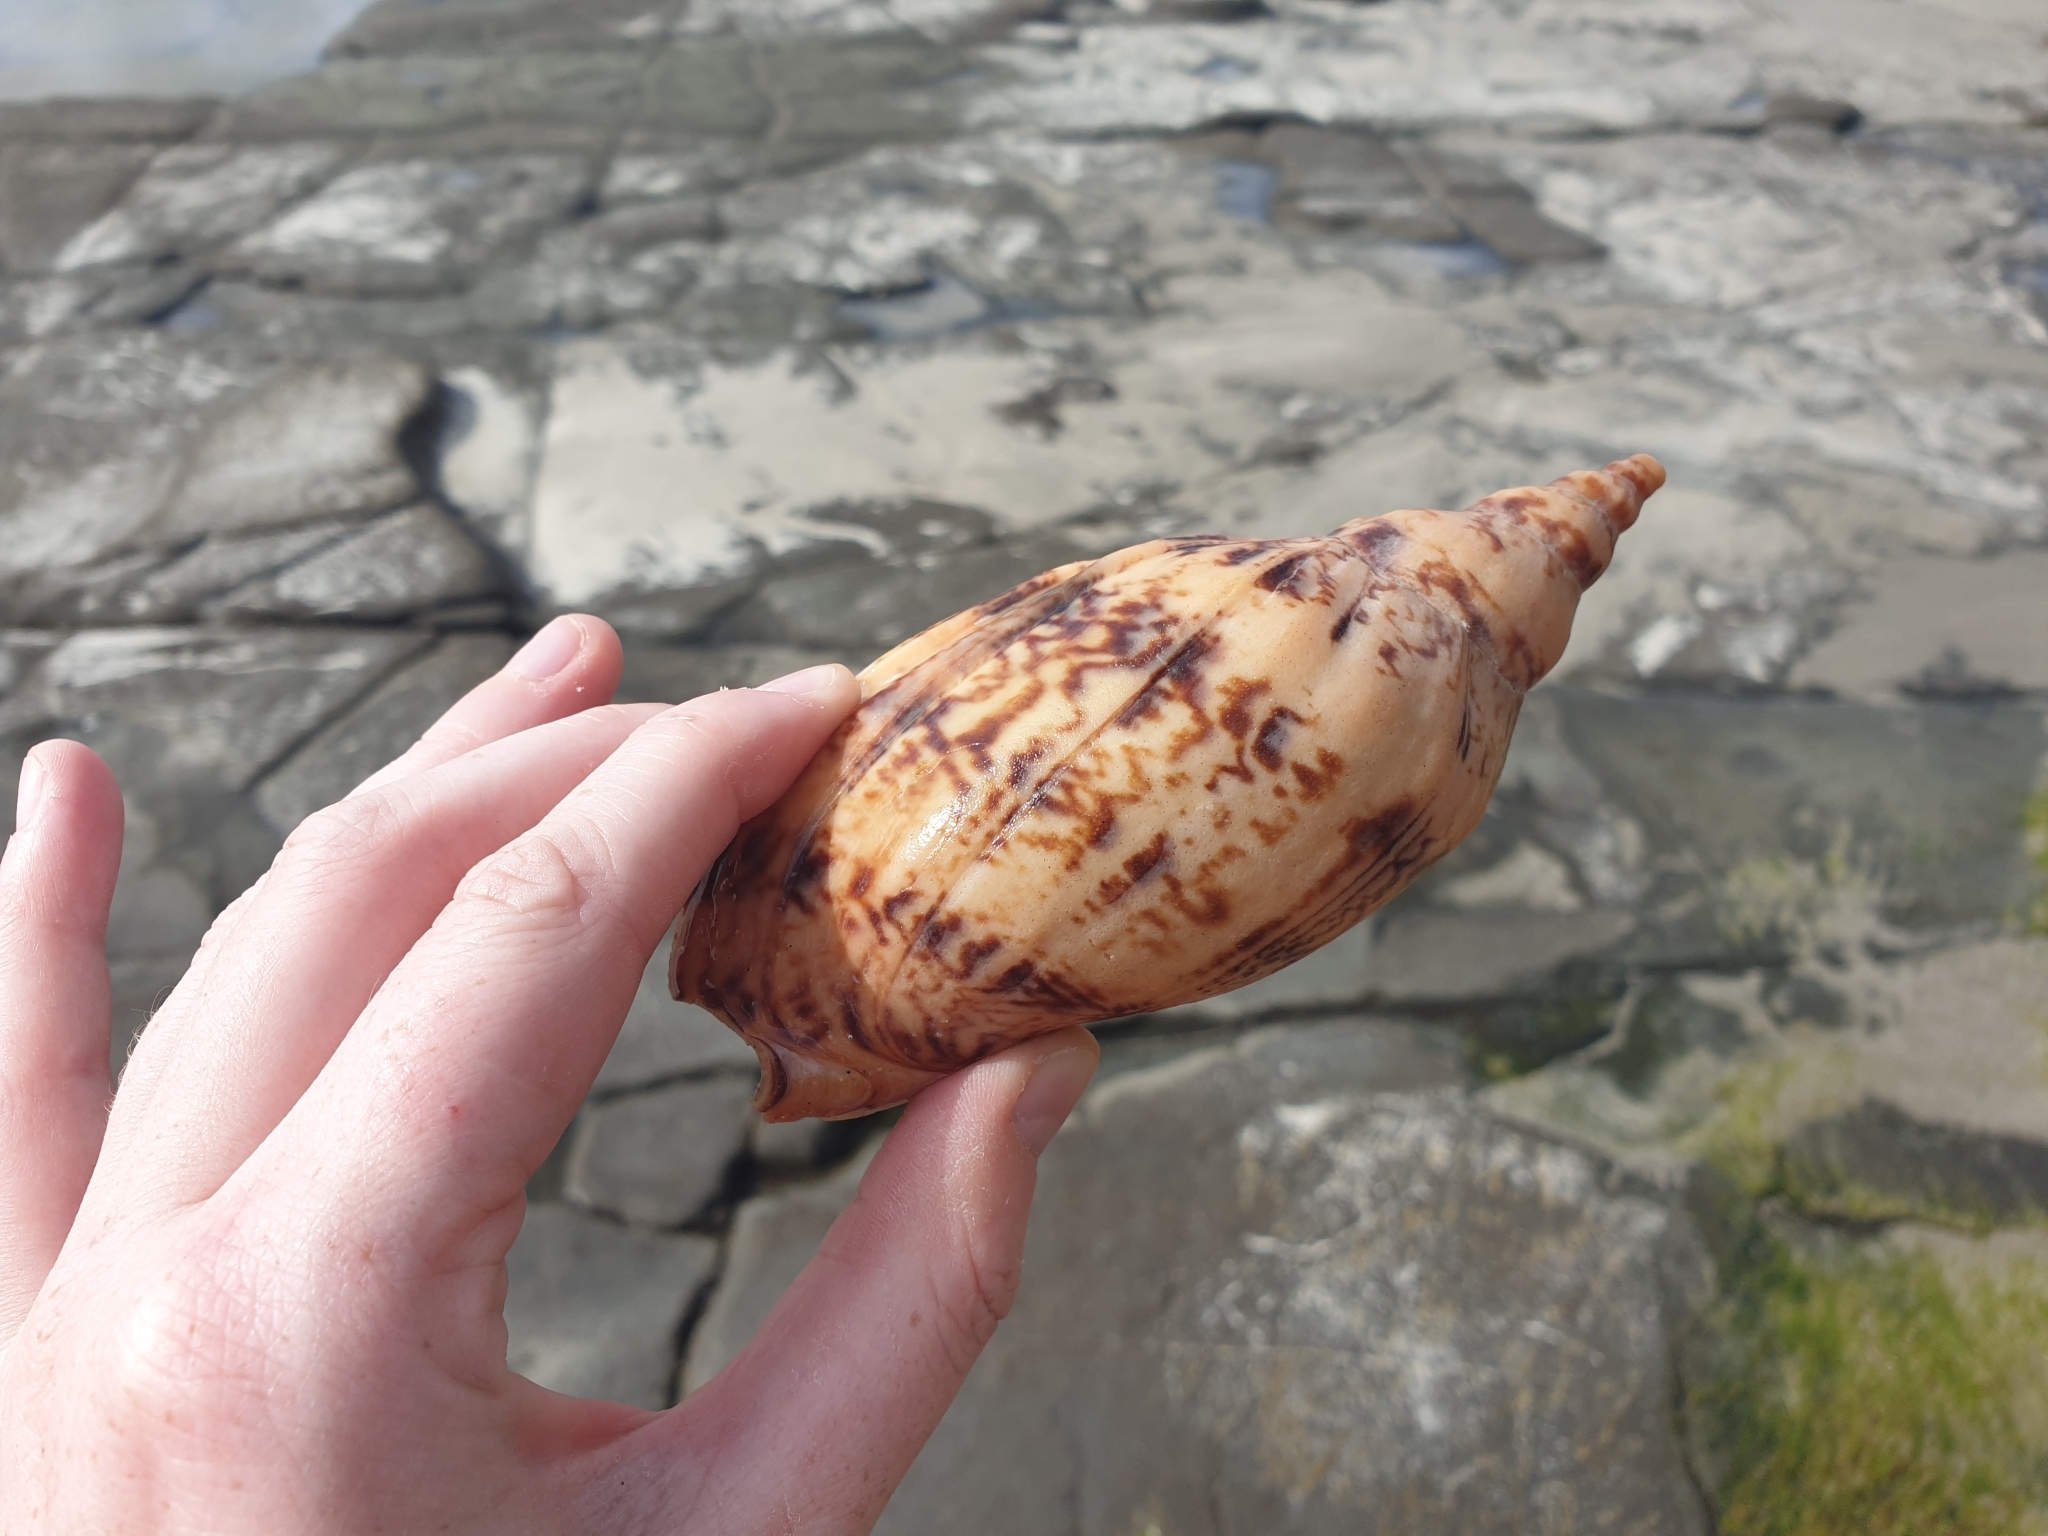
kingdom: Animalia
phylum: Mollusca
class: Gastropoda
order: Neogastropoda
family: Volutidae
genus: Alcithoe
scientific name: Alcithoe arabica
